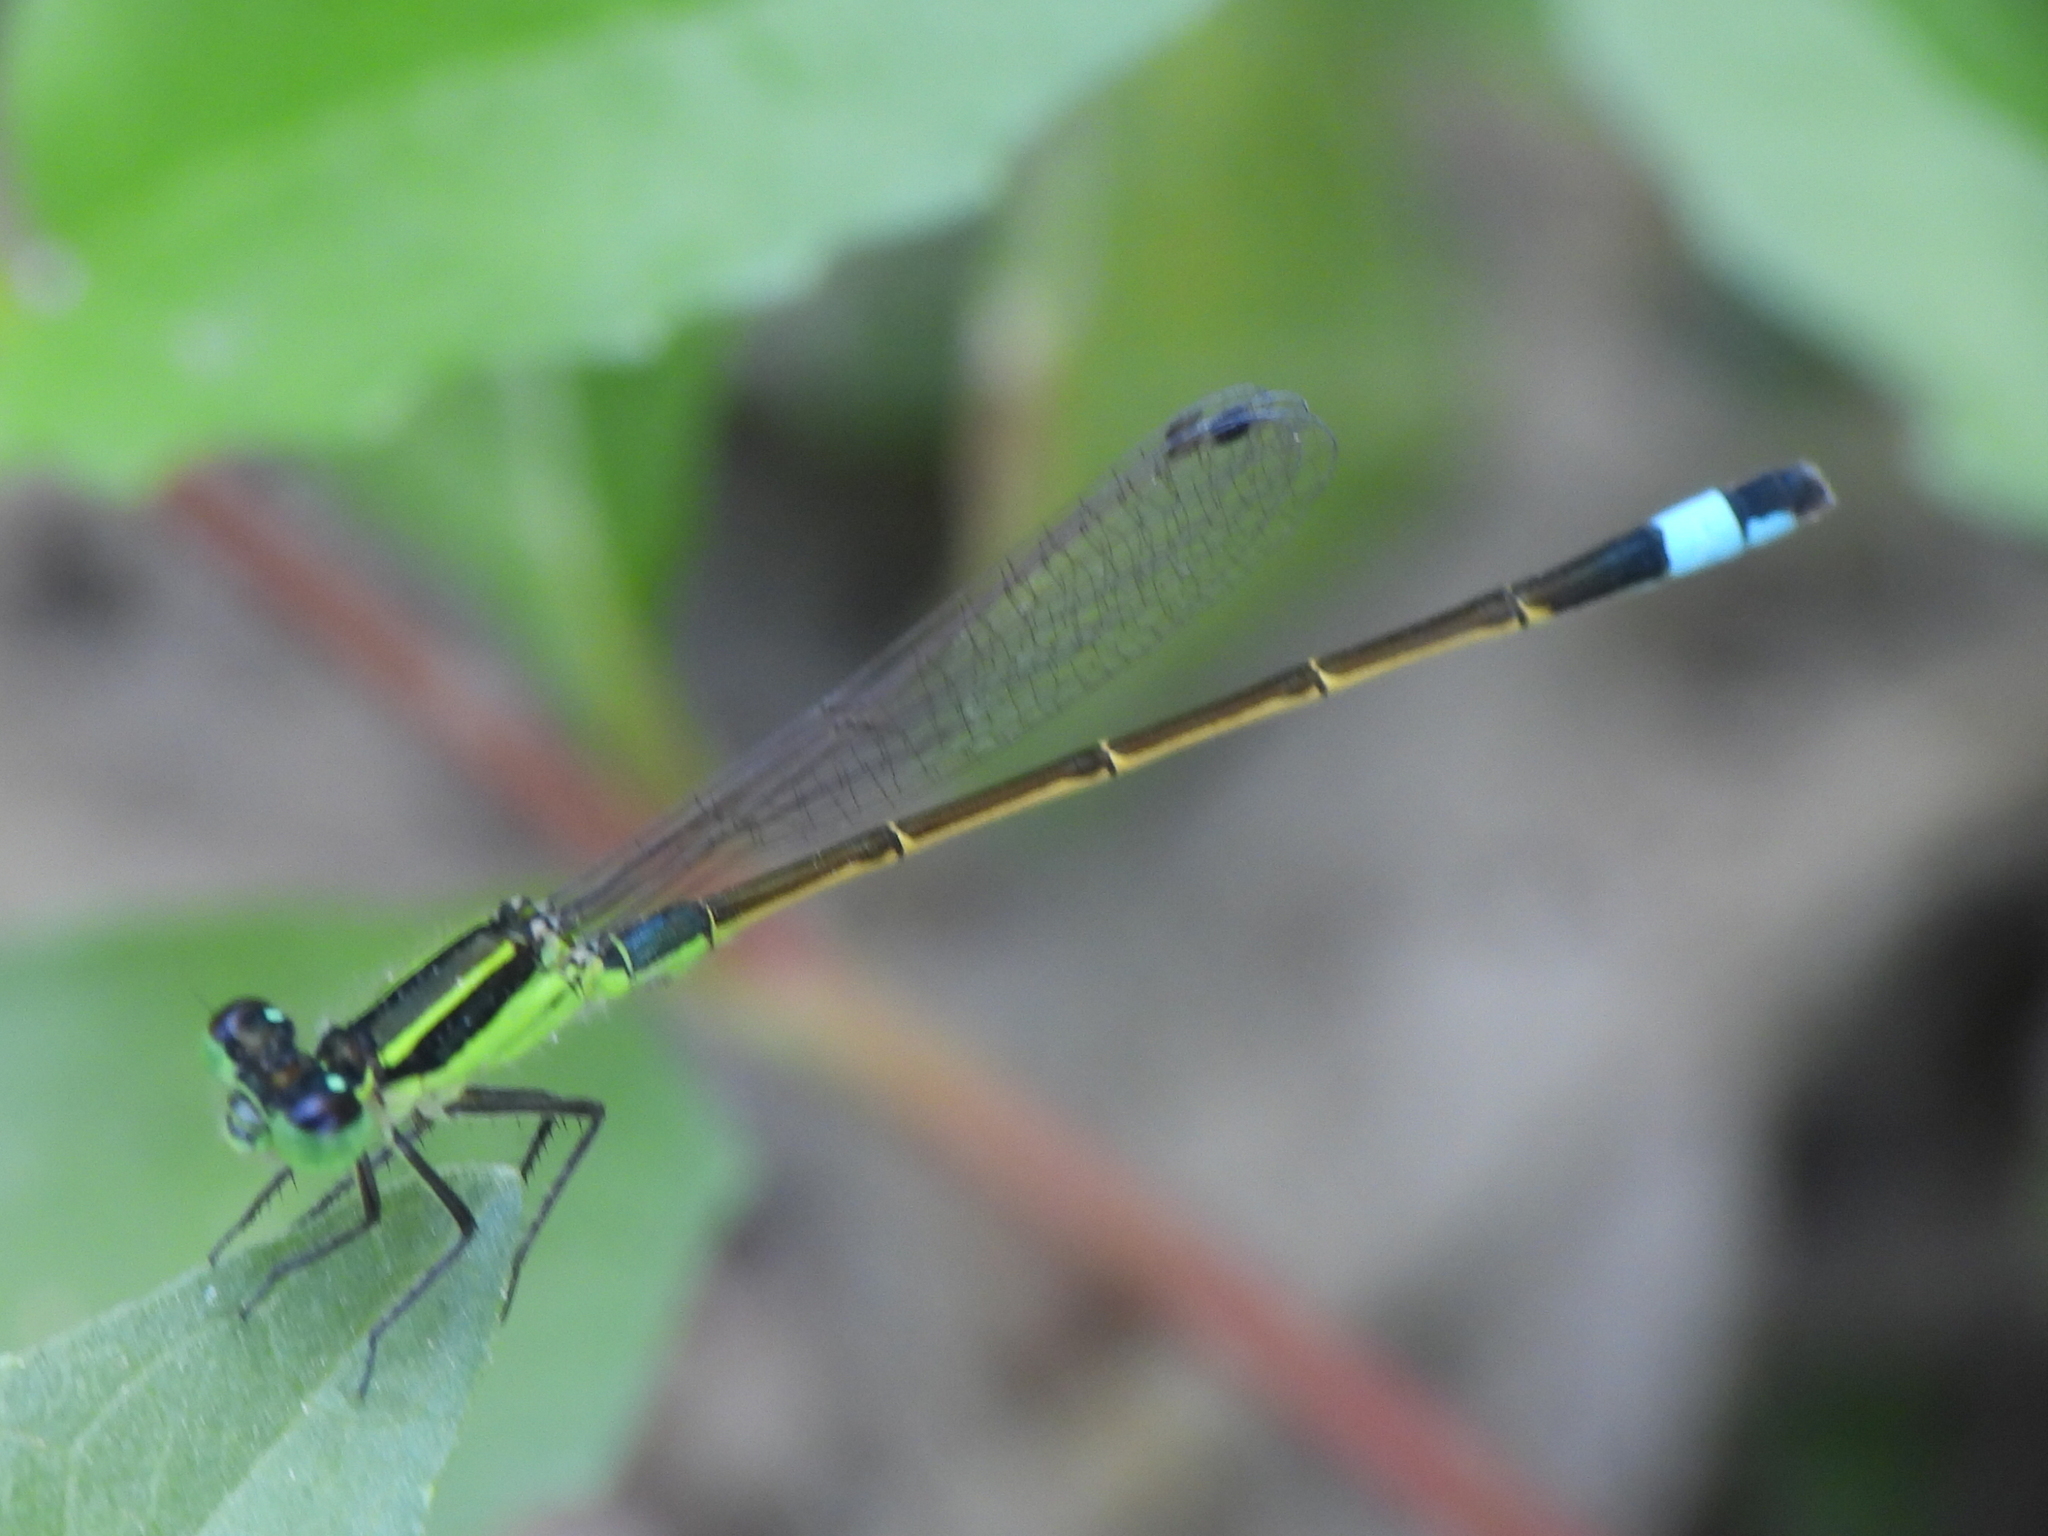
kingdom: Animalia
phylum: Arthropoda
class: Insecta
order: Odonata
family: Coenagrionidae
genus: Ischnura
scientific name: Ischnura ramburii
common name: Rambur's forktail
